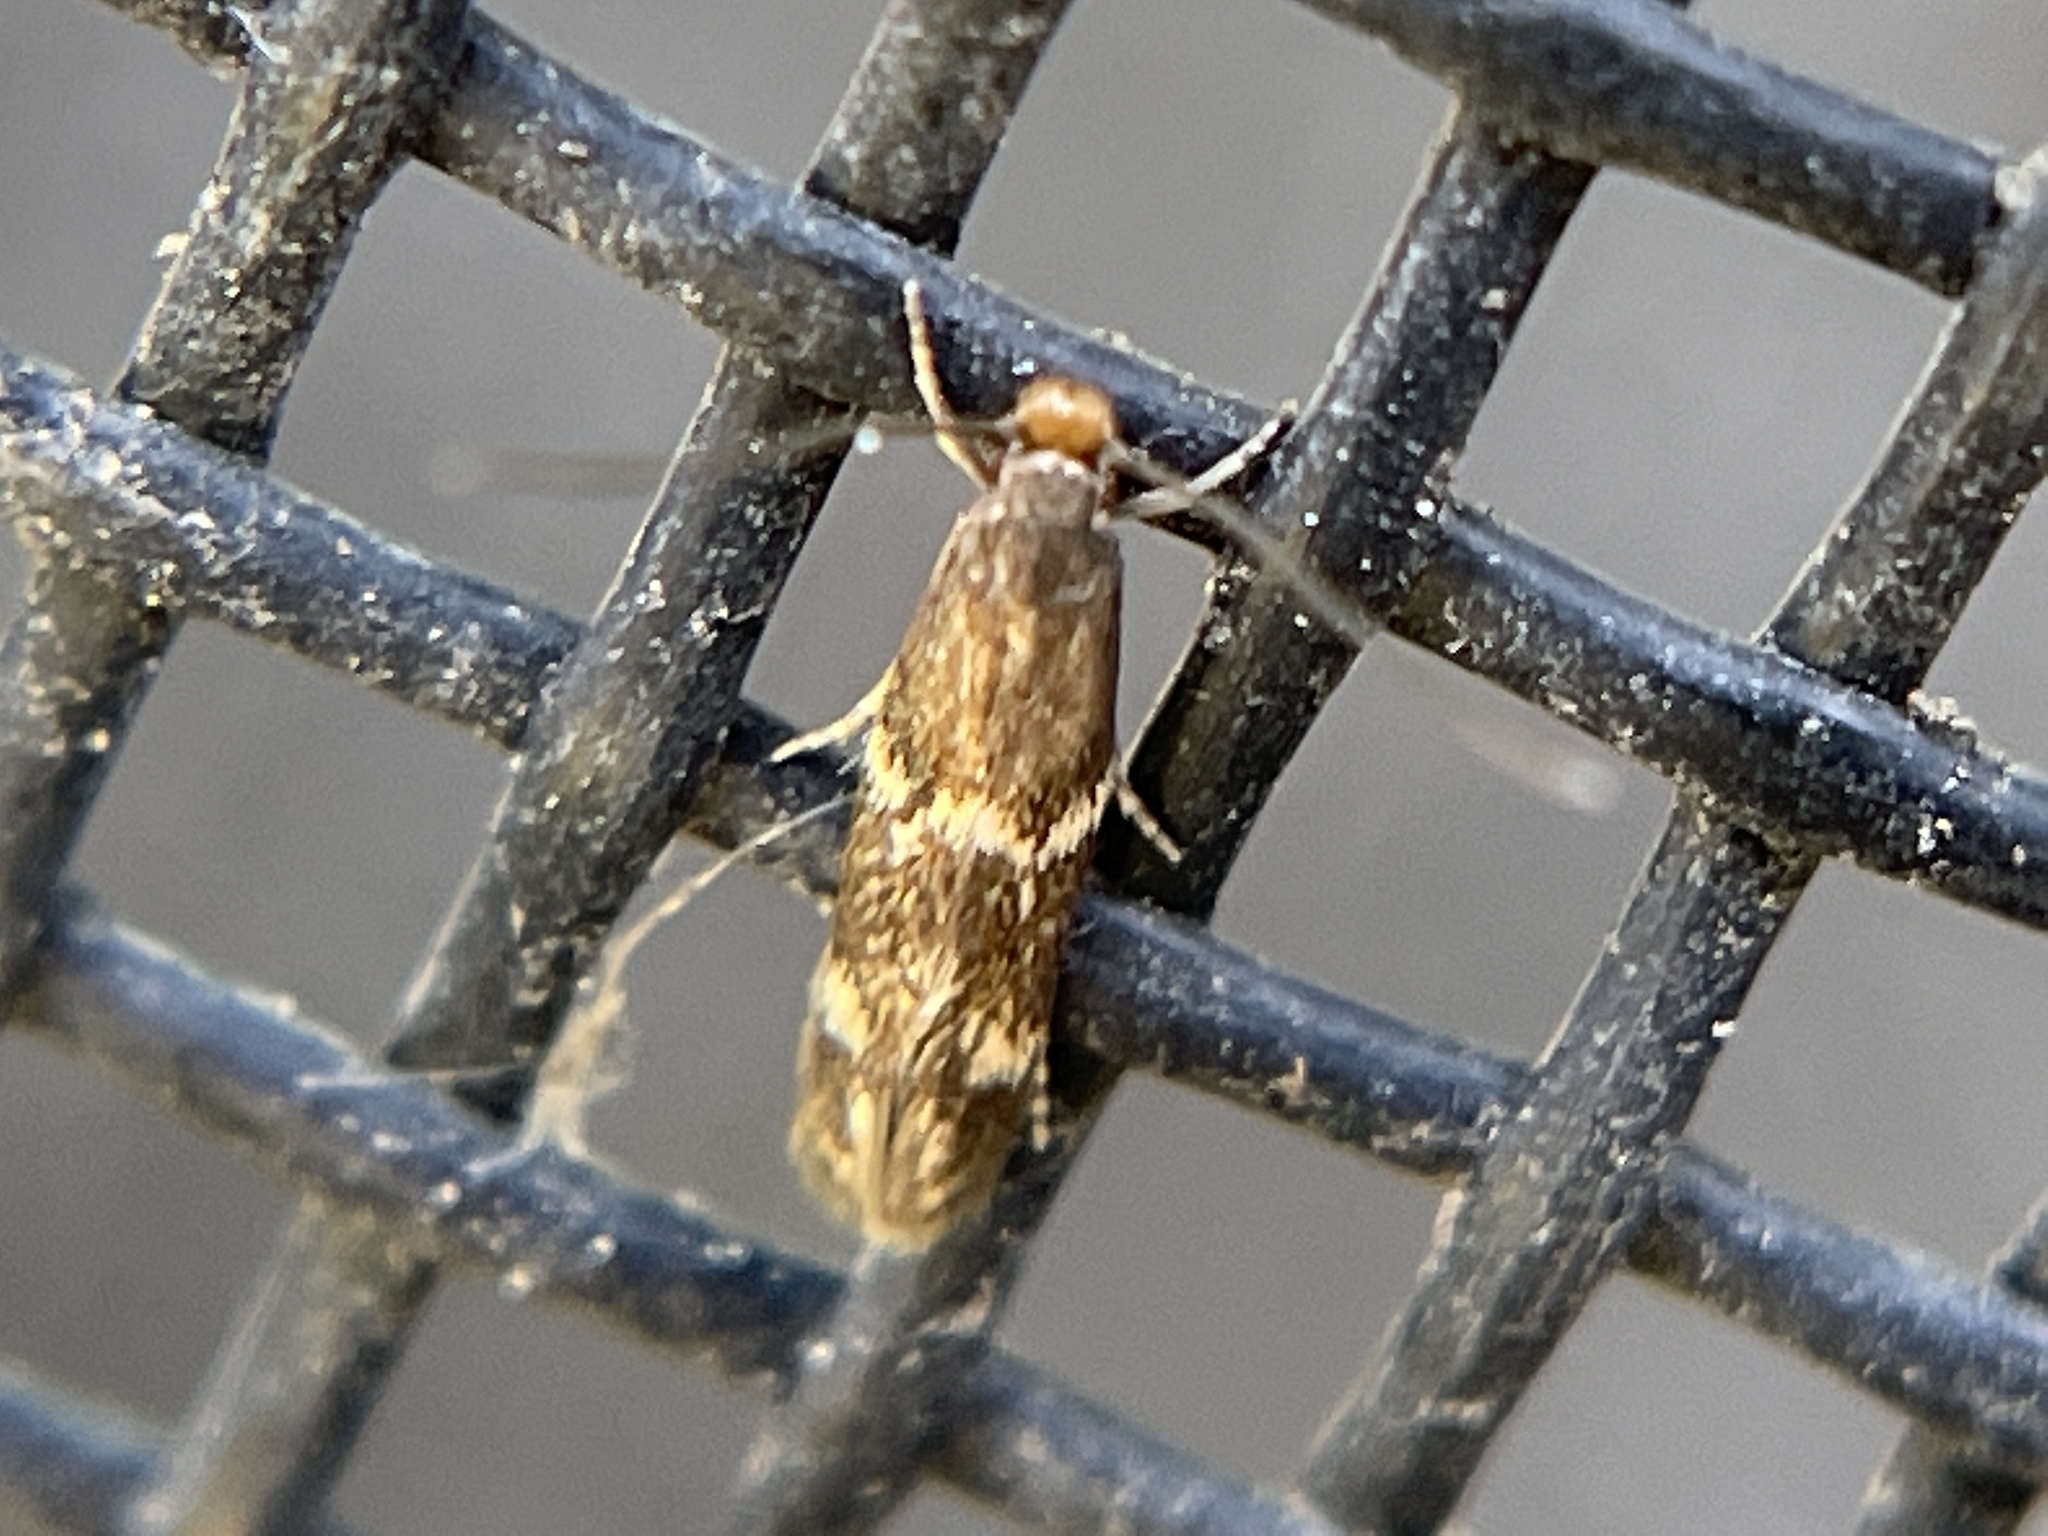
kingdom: Animalia
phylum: Arthropoda
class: Insecta
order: Lepidoptera
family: Tineidae
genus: Oinophila
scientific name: Oinophila v-flava
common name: Yellow v moth
